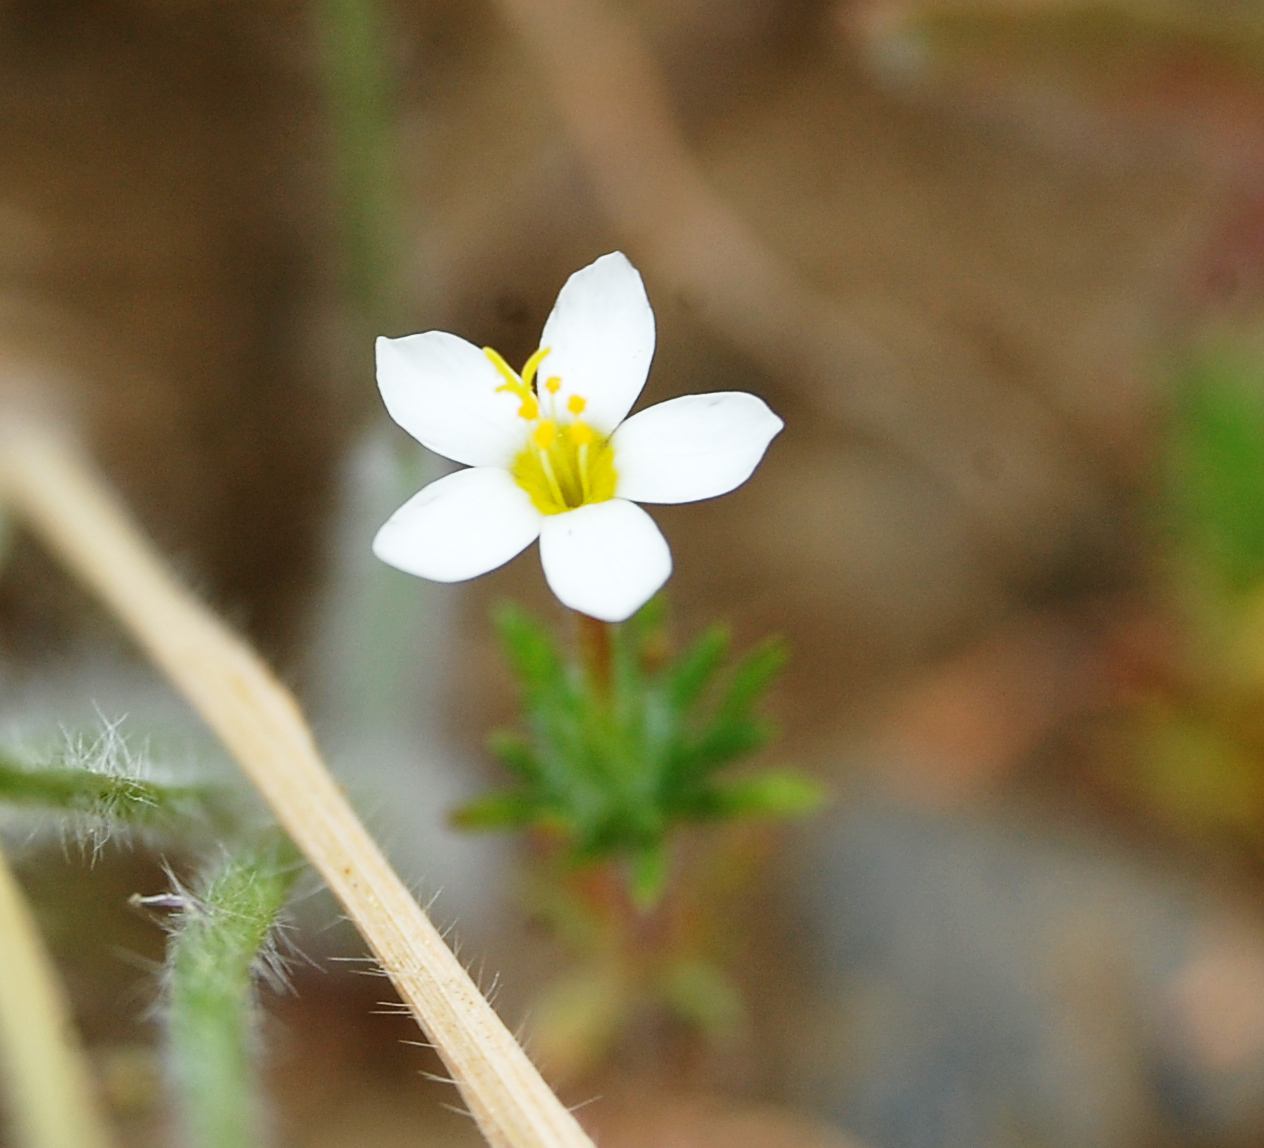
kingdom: Plantae
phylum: Tracheophyta
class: Magnoliopsida
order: Ericales
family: Polemoniaceae
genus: Leptosiphon
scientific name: Leptosiphon bicolor
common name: True babystars
